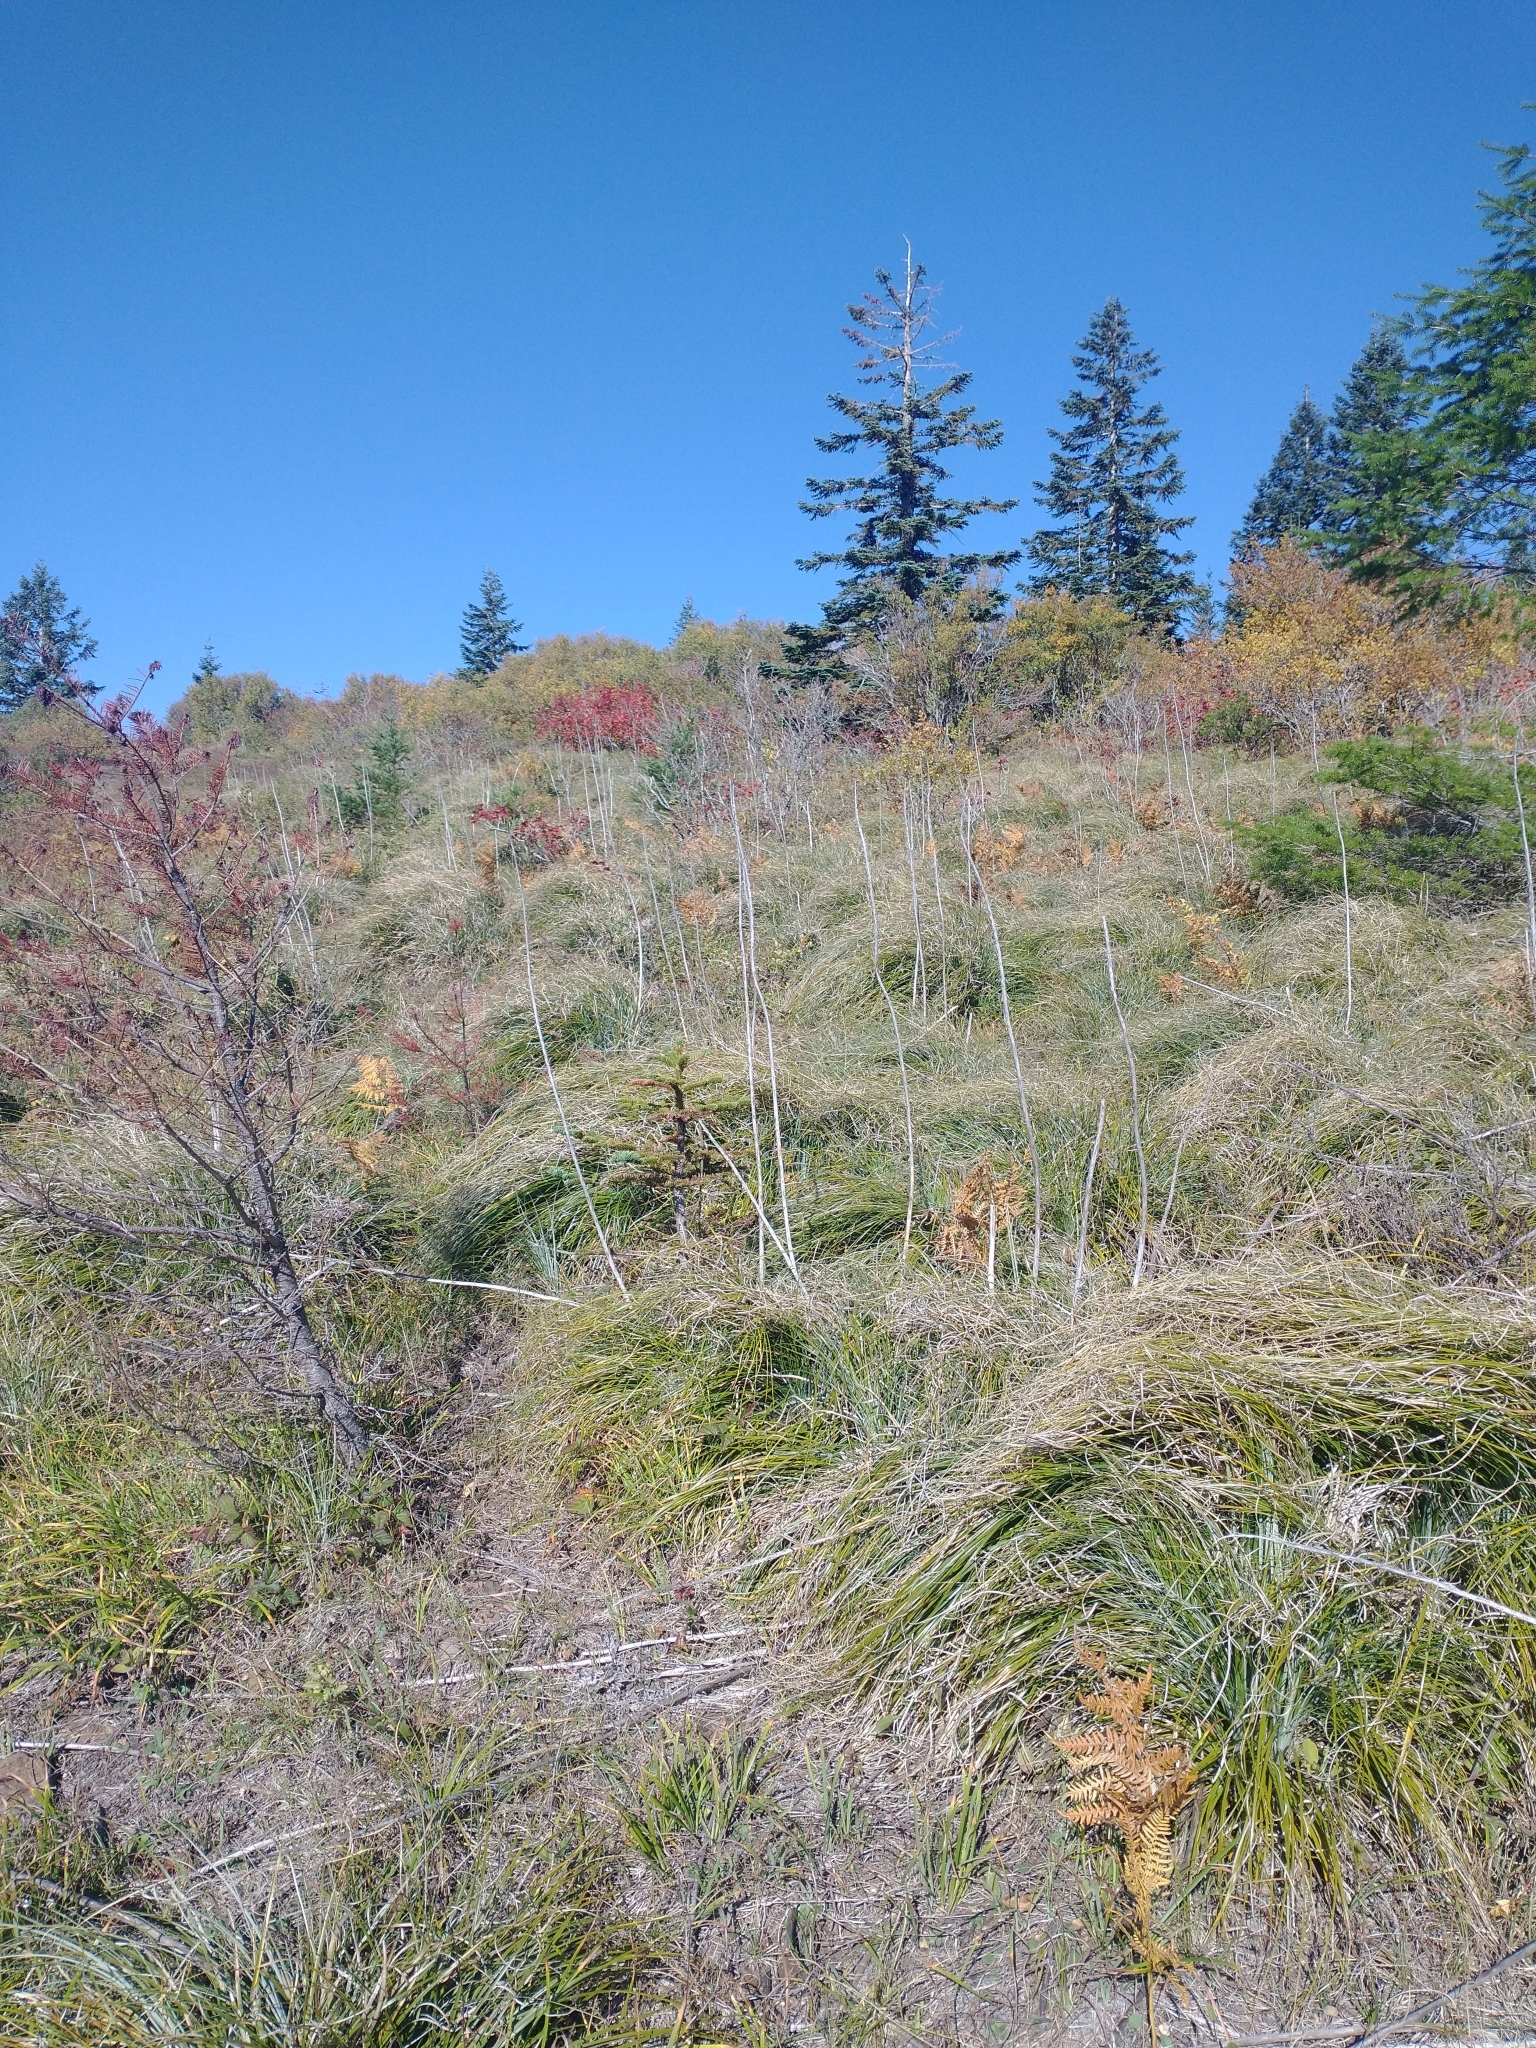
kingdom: Plantae
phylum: Tracheophyta
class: Pinopsida
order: Pinales
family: Pinaceae
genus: Abies
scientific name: Abies procera
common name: Noble fir
